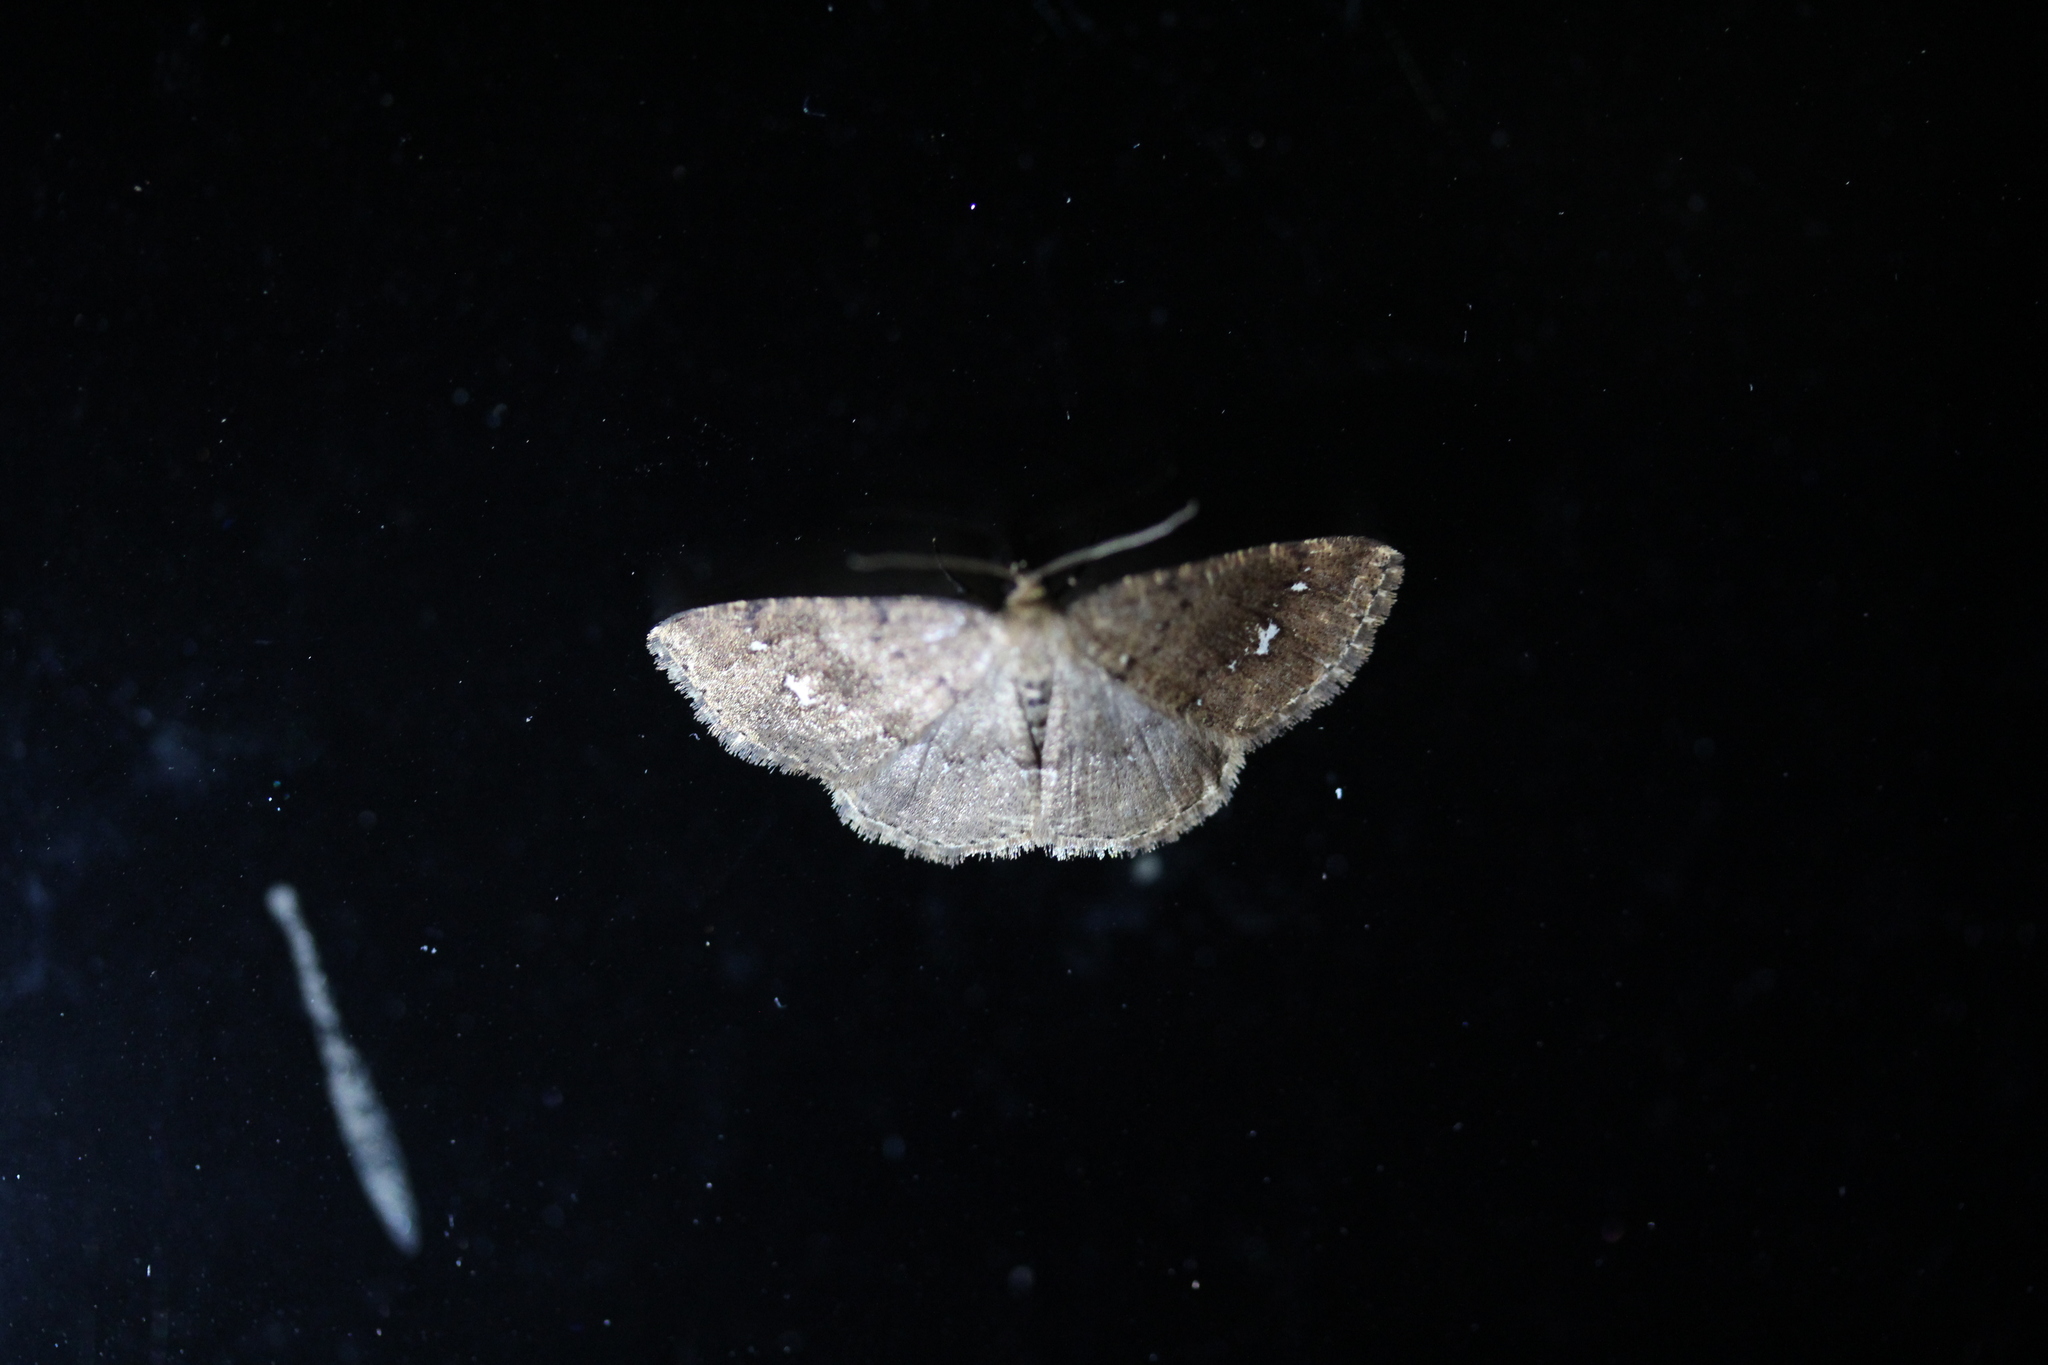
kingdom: Animalia
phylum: Arthropoda
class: Insecta
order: Lepidoptera
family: Geometridae
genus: Homochlodes
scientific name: Homochlodes fritillaria
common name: Pale homochlodes
